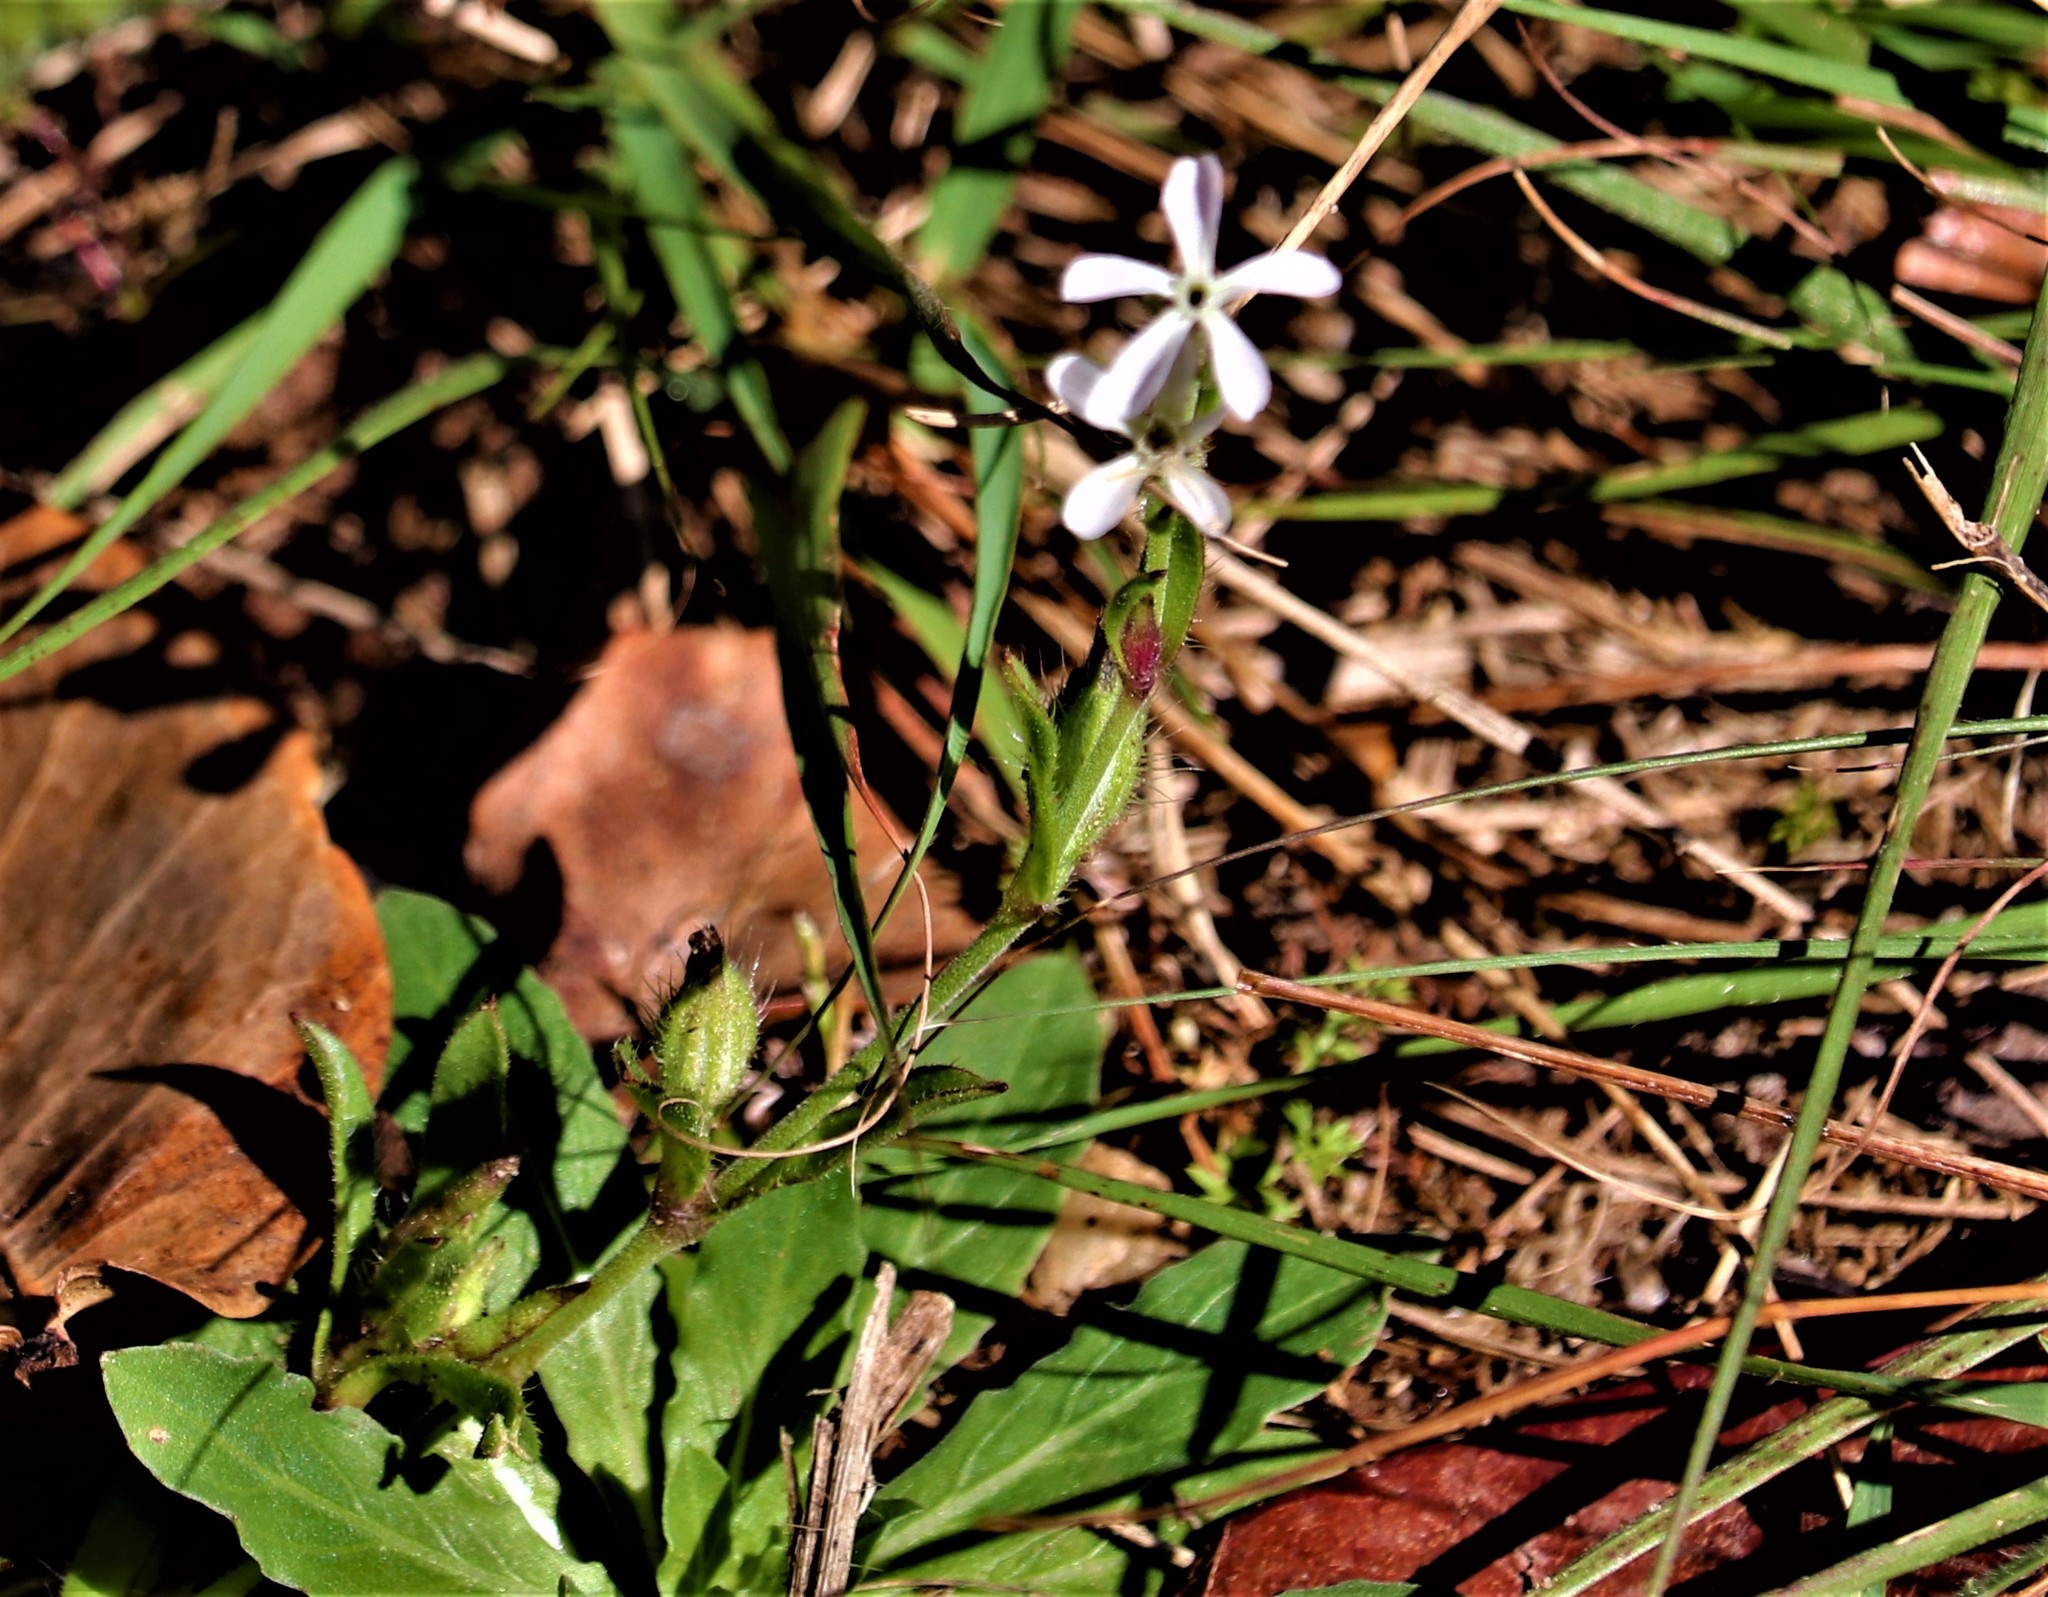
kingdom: Plantae
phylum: Tracheophyta
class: Magnoliopsida
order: Caryophyllales
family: Caryophyllaceae
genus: Silene
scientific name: Silene gallica
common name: Small-flowered catchfly
